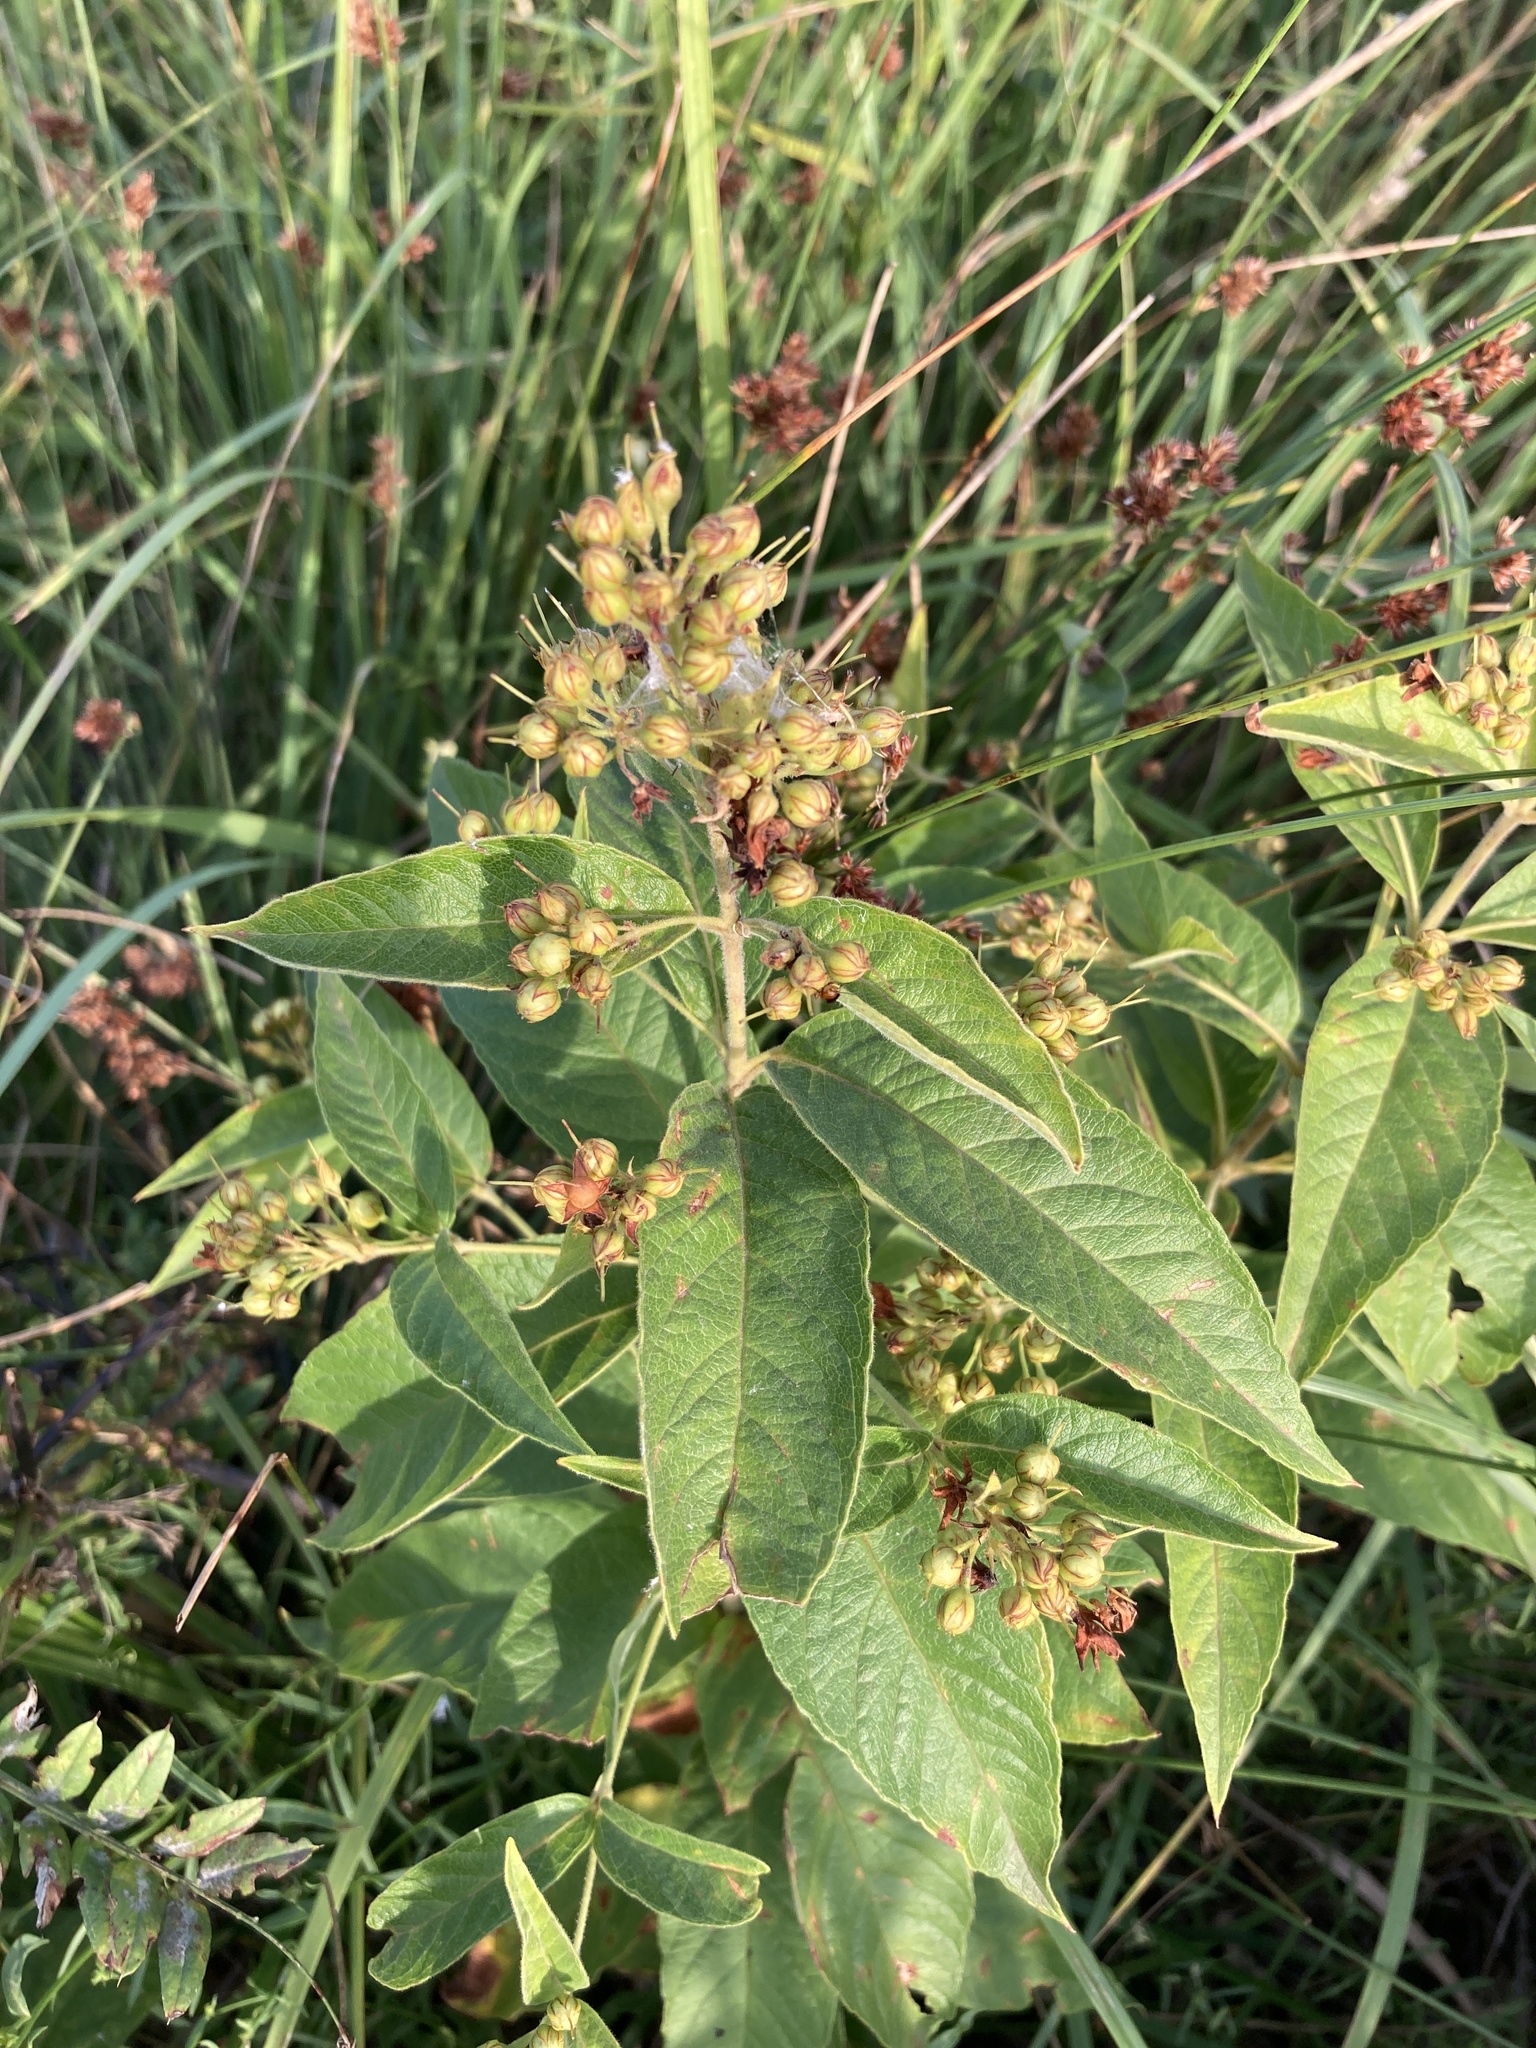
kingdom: Plantae
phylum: Tracheophyta
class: Magnoliopsida
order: Ericales
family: Primulaceae
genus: Lysimachia
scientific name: Lysimachia vulgaris
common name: Yellow loosestrife
